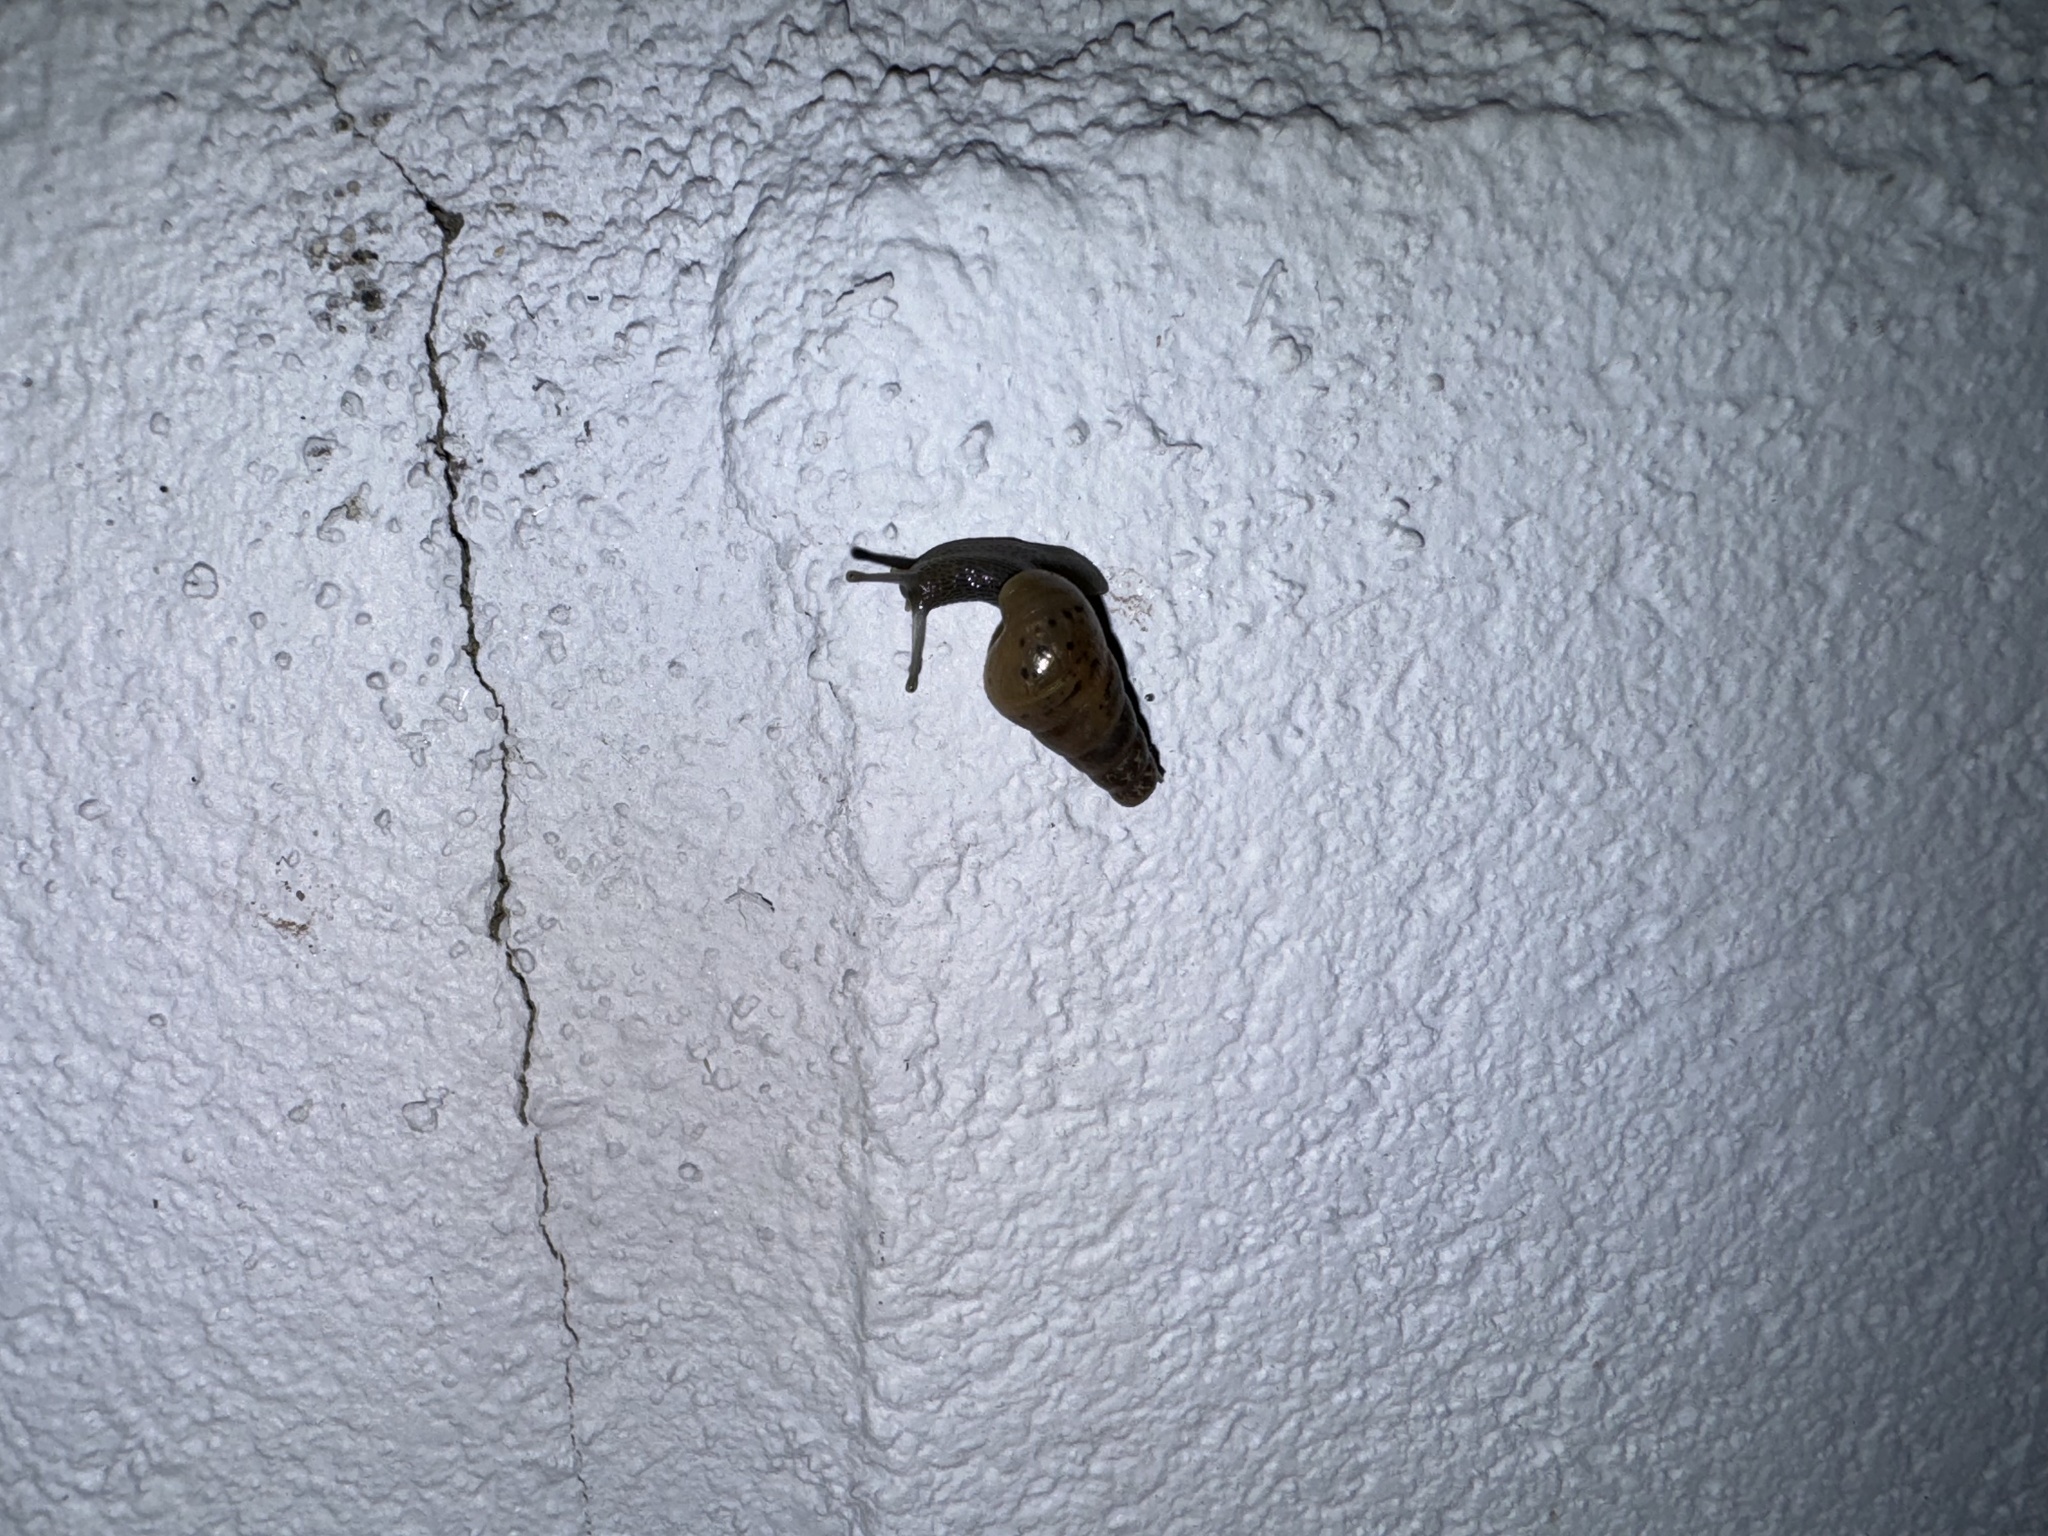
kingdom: Animalia
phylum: Mollusca
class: Gastropoda
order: Stylommatophora
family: Achatinidae
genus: Rumina
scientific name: Rumina decollata
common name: Decollate snail
